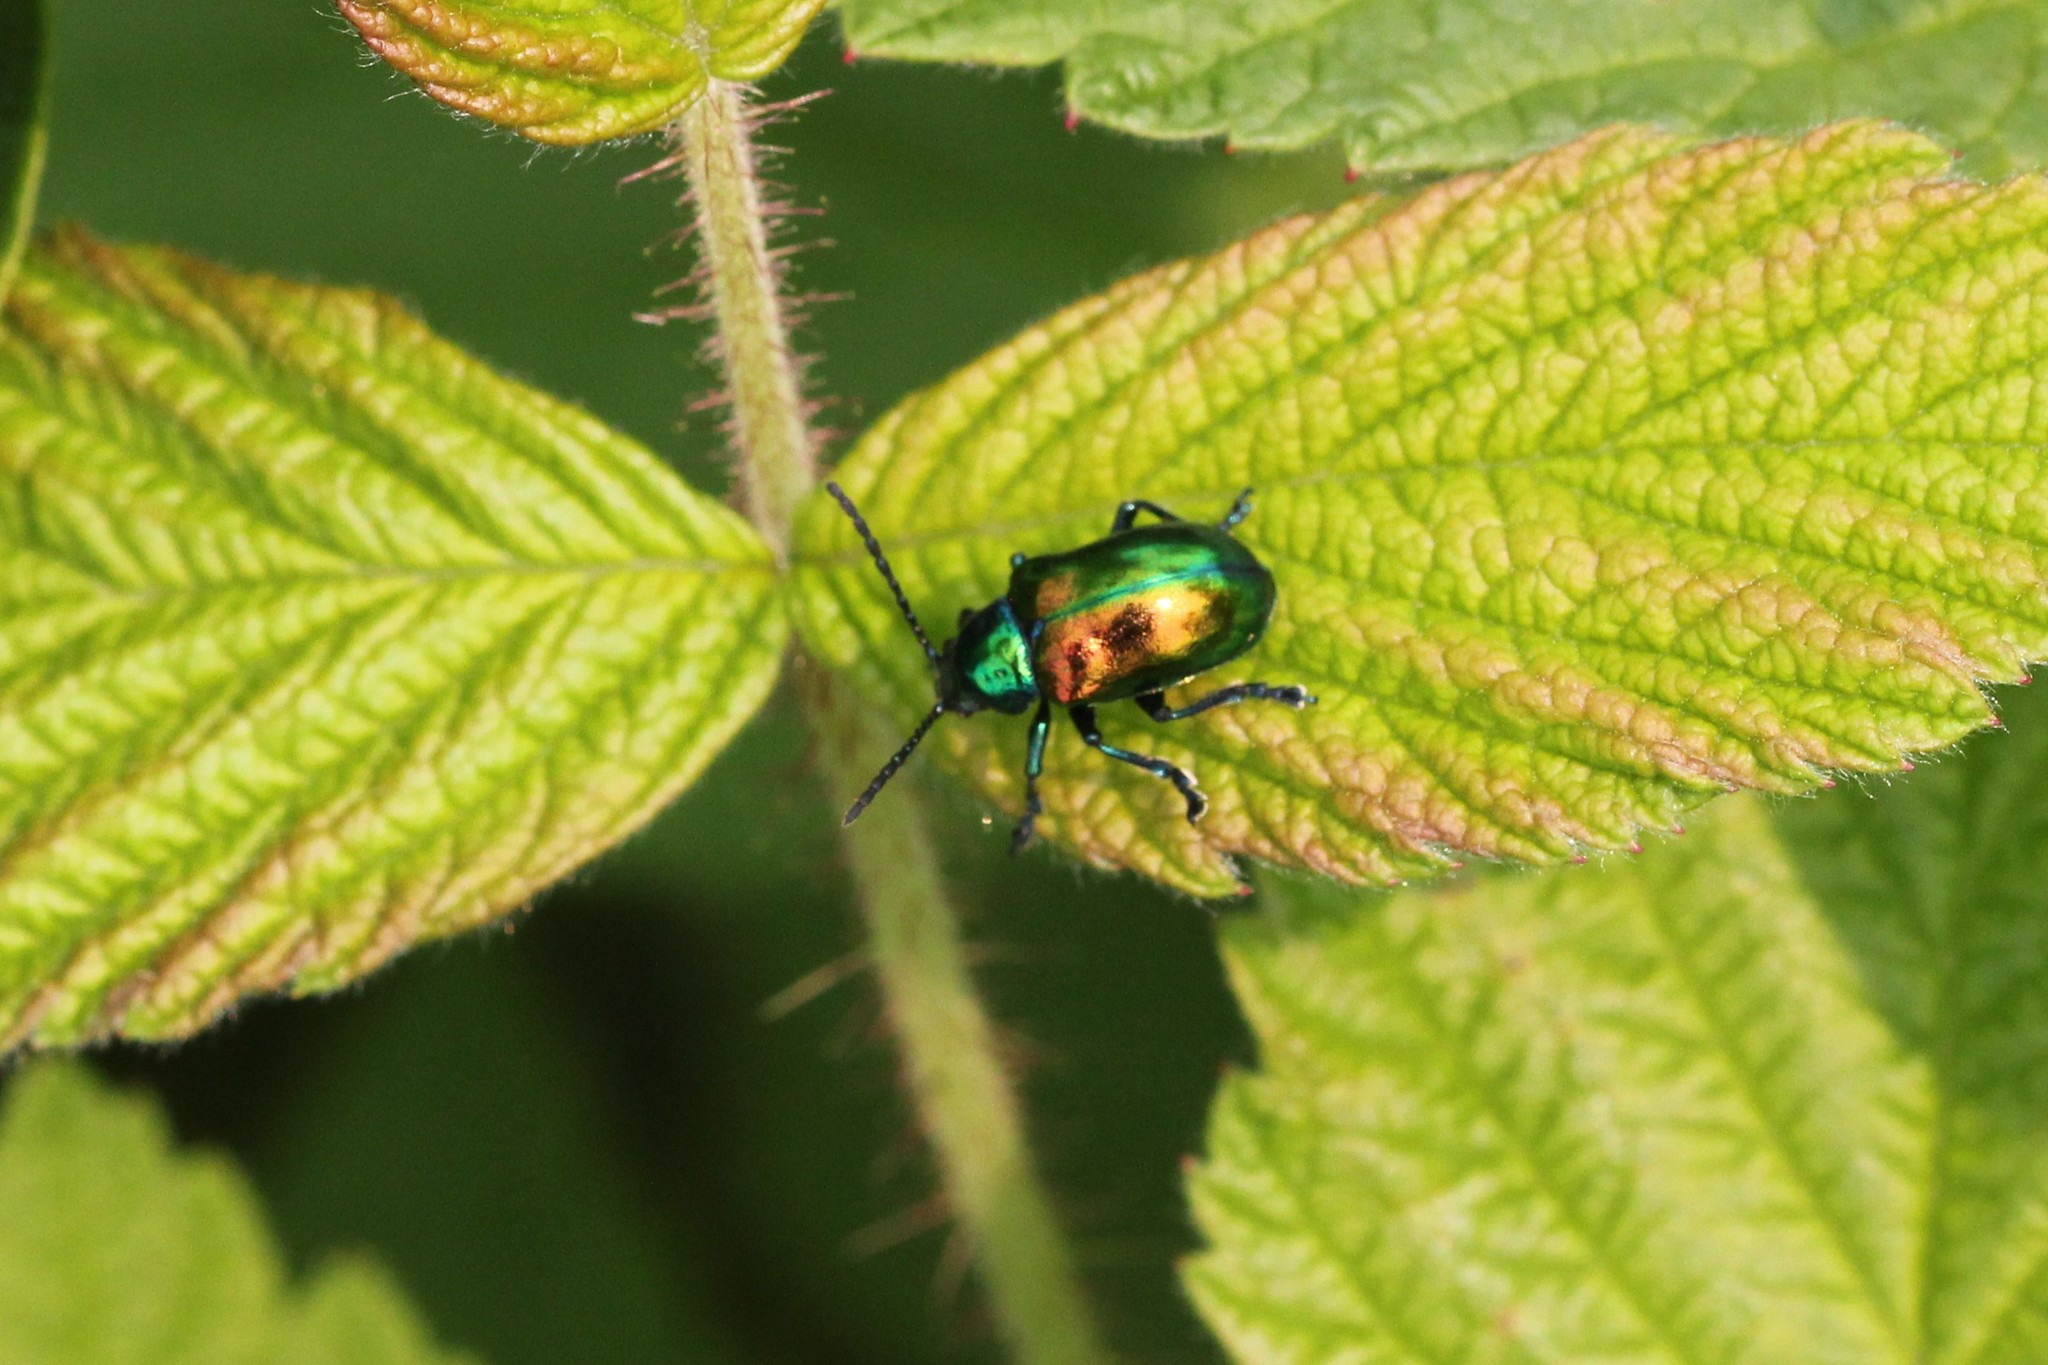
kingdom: Animalia
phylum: Arthropoda
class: Insecta
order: Coleoptera
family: Chrysomelidae
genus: Chrysochus
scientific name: Chrysochus auratus
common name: Dogbane leaf beetle
